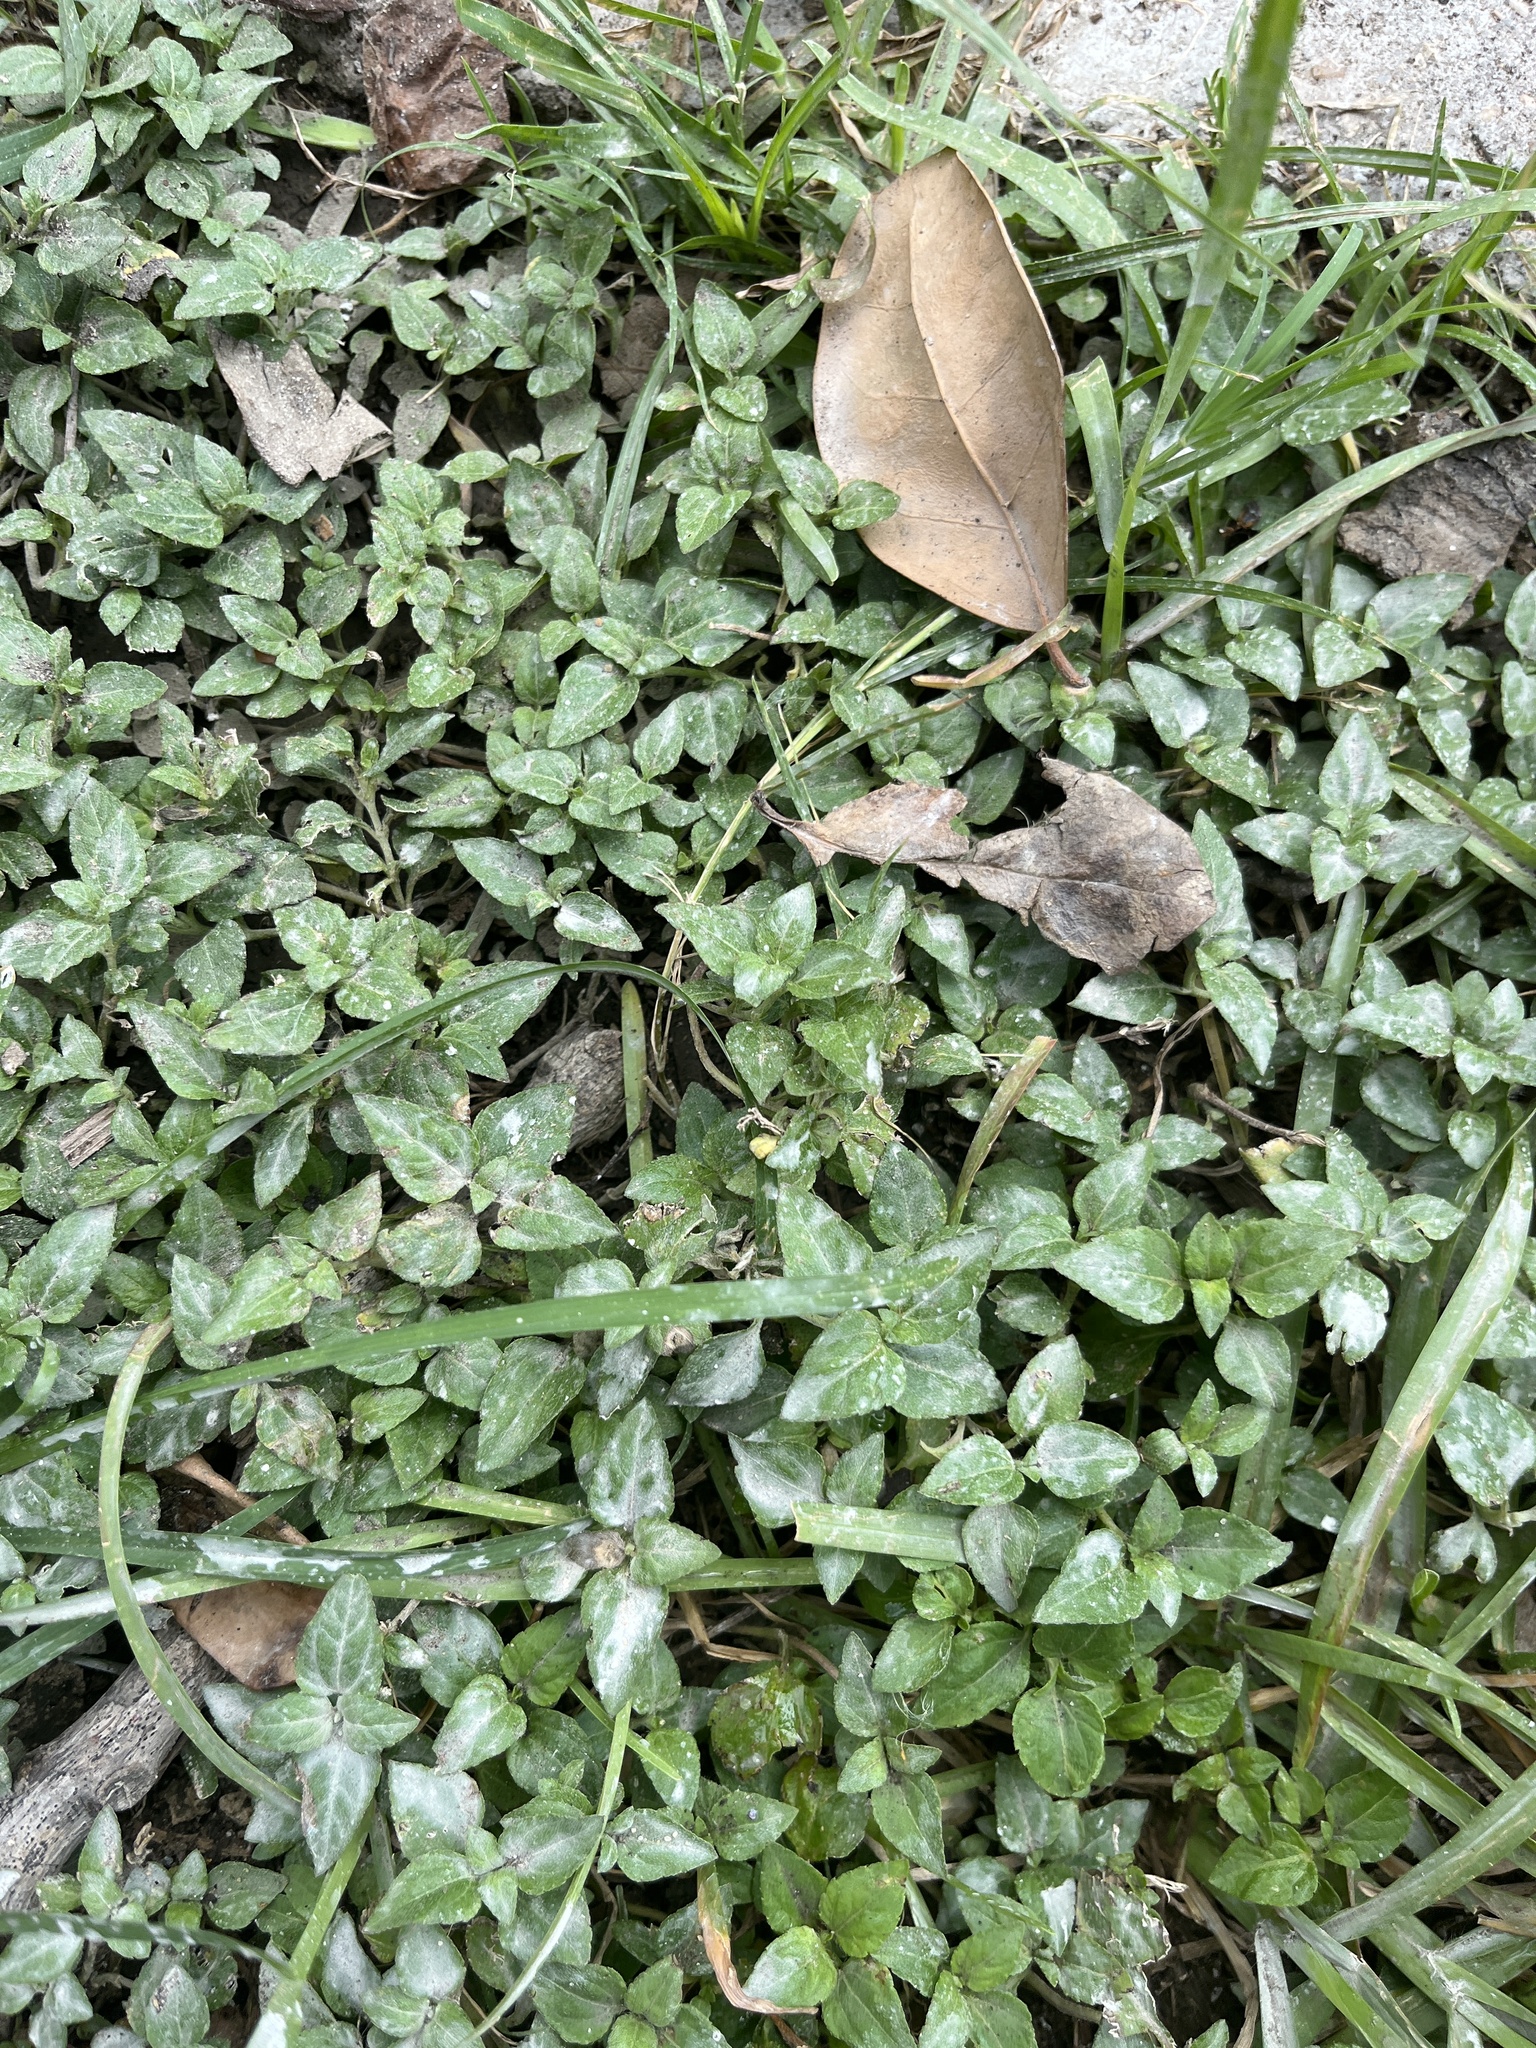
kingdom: Plantae
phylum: Tracheophyta
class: Magnoliopsida
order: Asterales
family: Asteraceae
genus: Calyptocarpus
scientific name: Calyptocarpus vialis
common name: Straggler daisy
